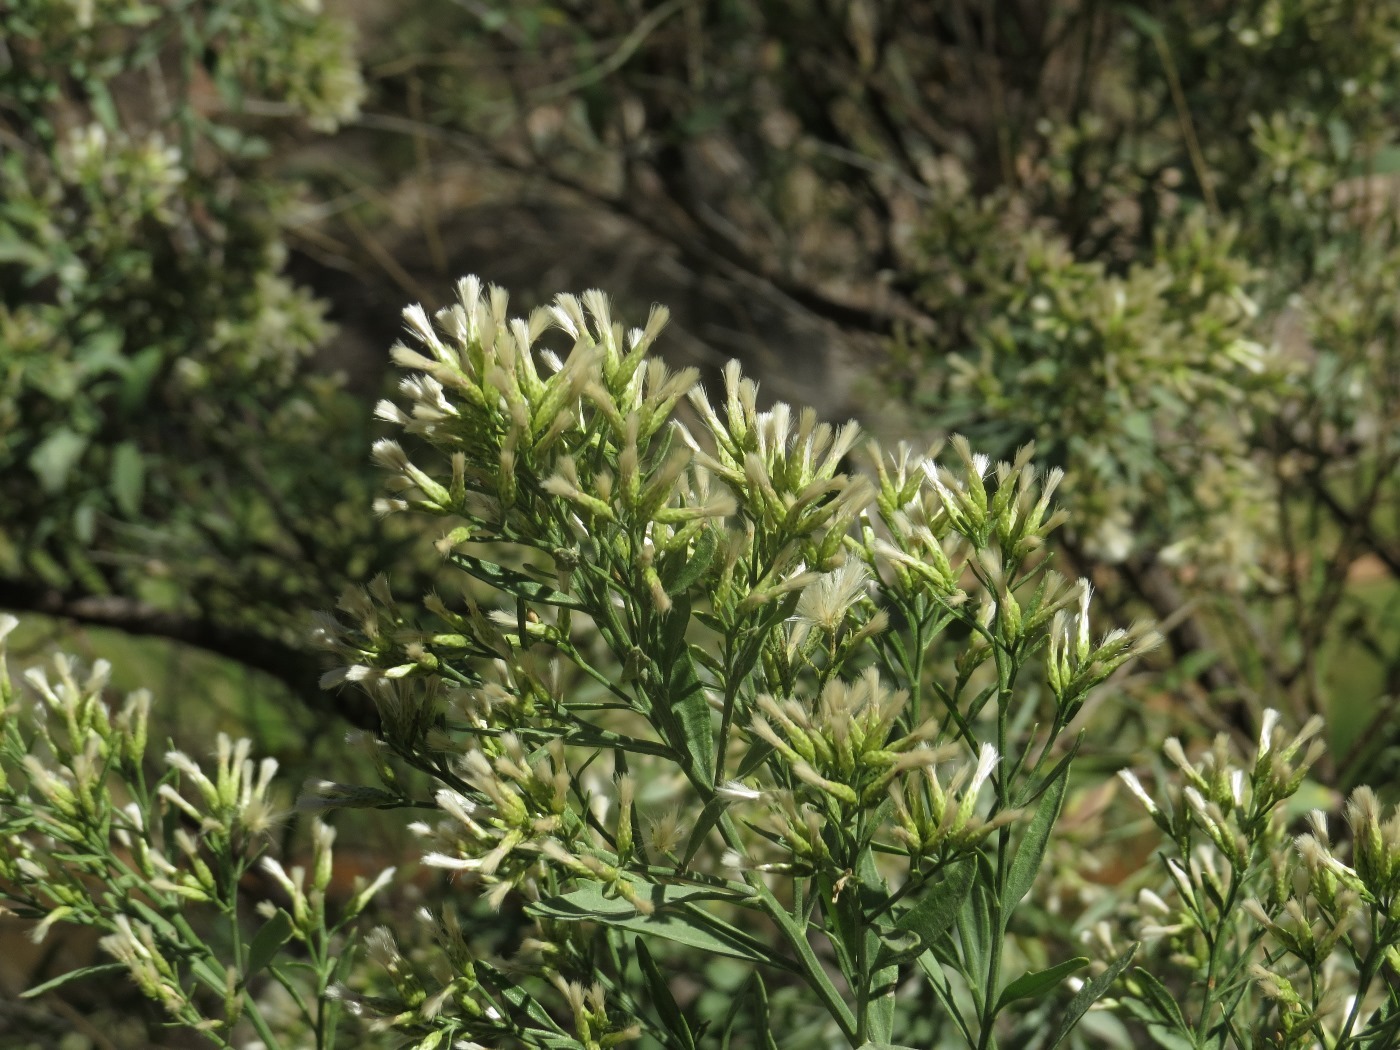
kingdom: Plantae
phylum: Tracheophyta
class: Magnoliopsida
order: Asterales
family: Asteraceae
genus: Baccharis
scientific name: Baccharis salicina
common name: Willow baccharis
